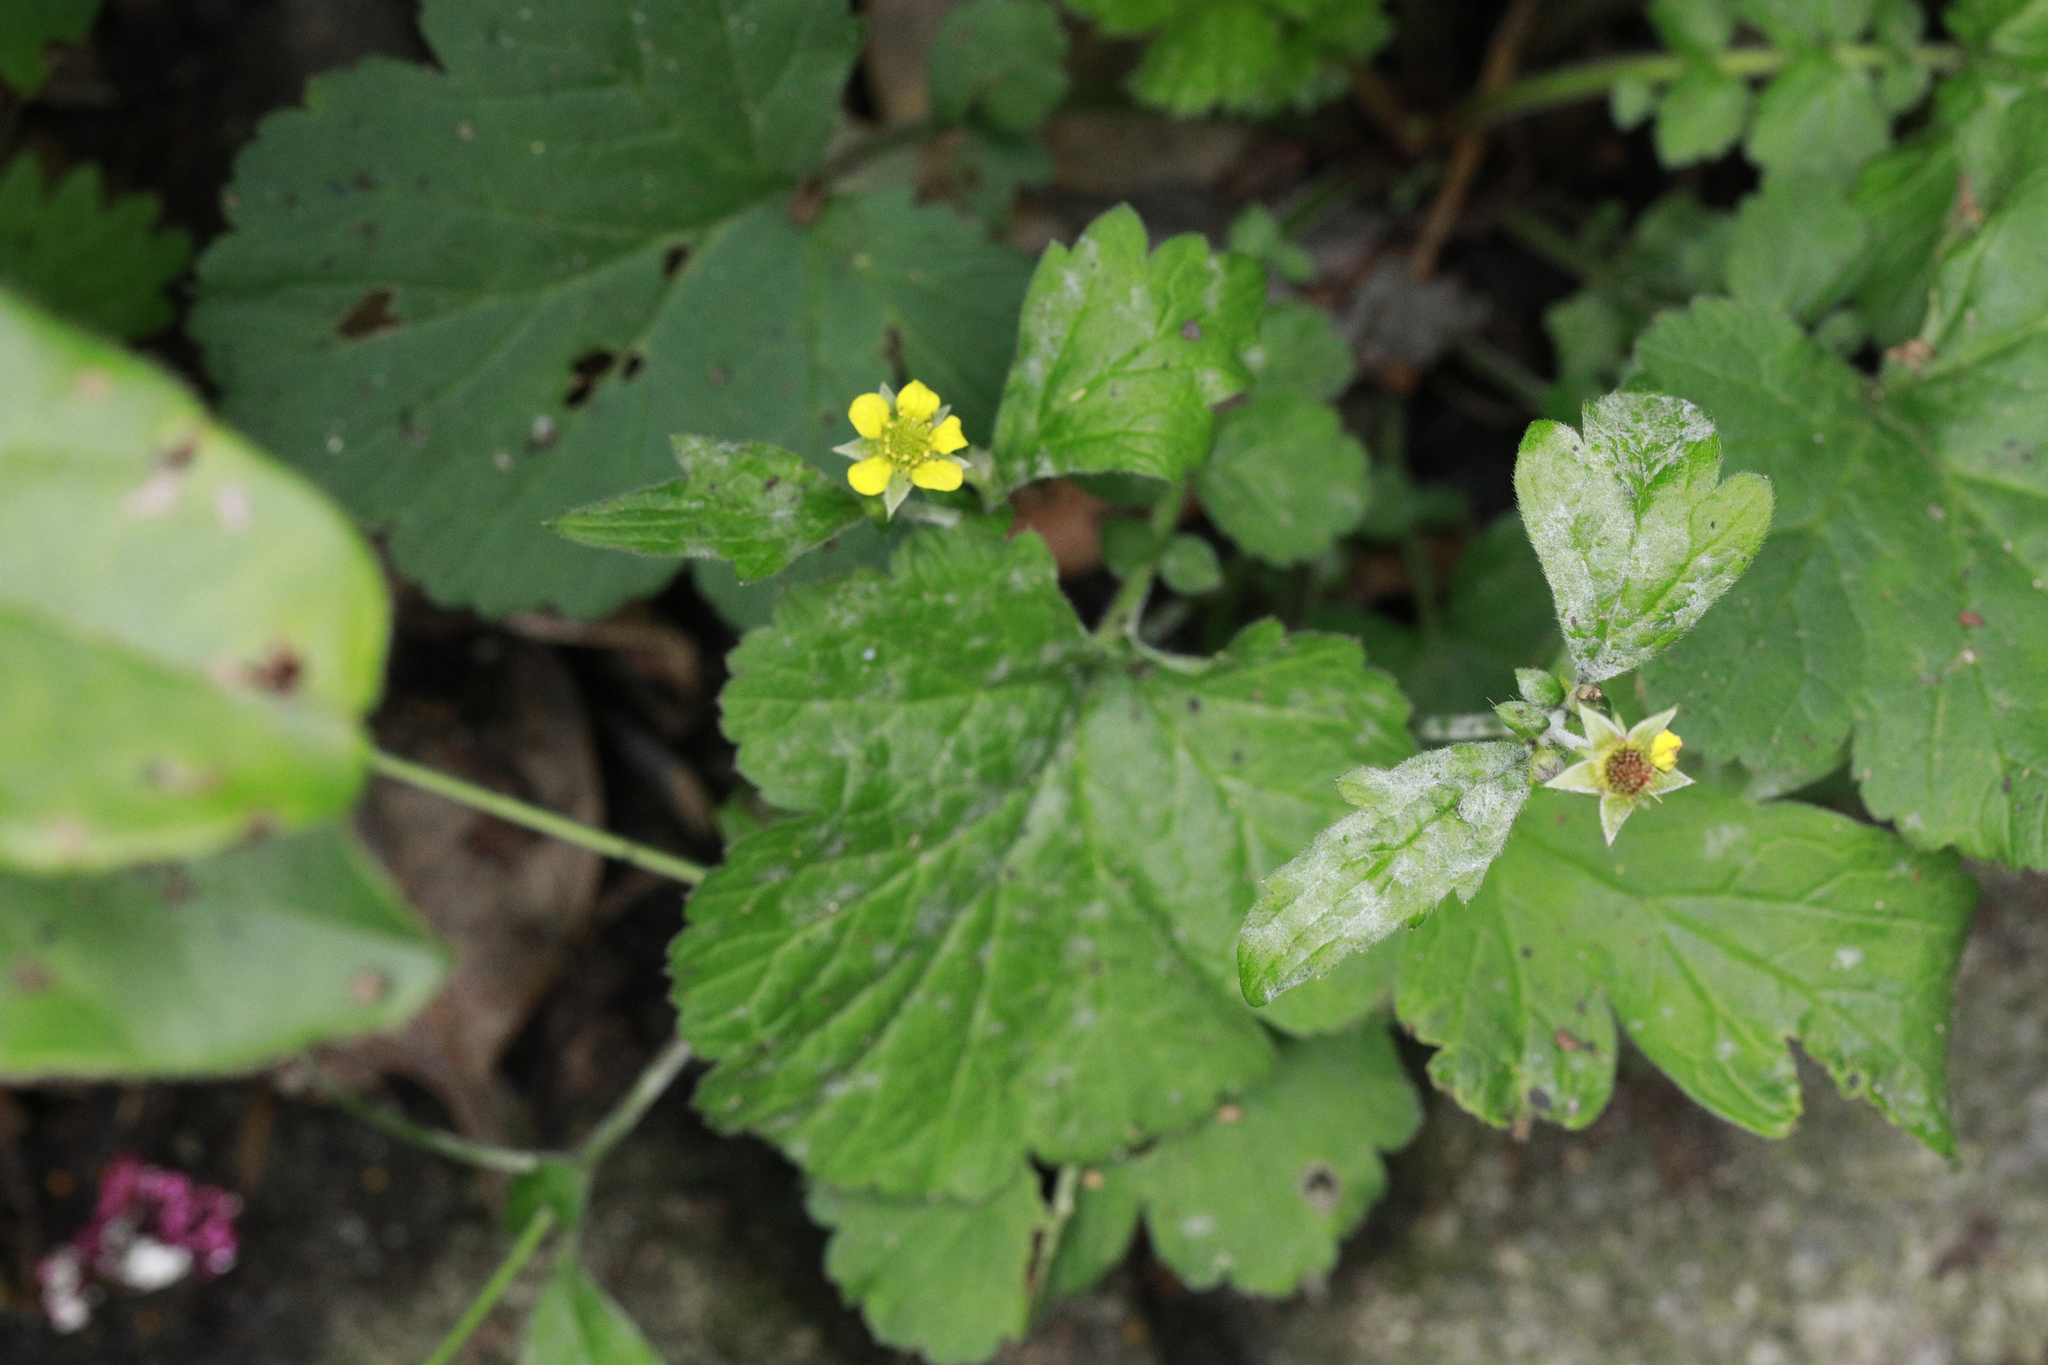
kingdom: Fungi
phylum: Ascomycota
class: Leotiomycetes
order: Helotiales
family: Erysiphaceae
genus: Podosphaera
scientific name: Podosphaera aphanis
